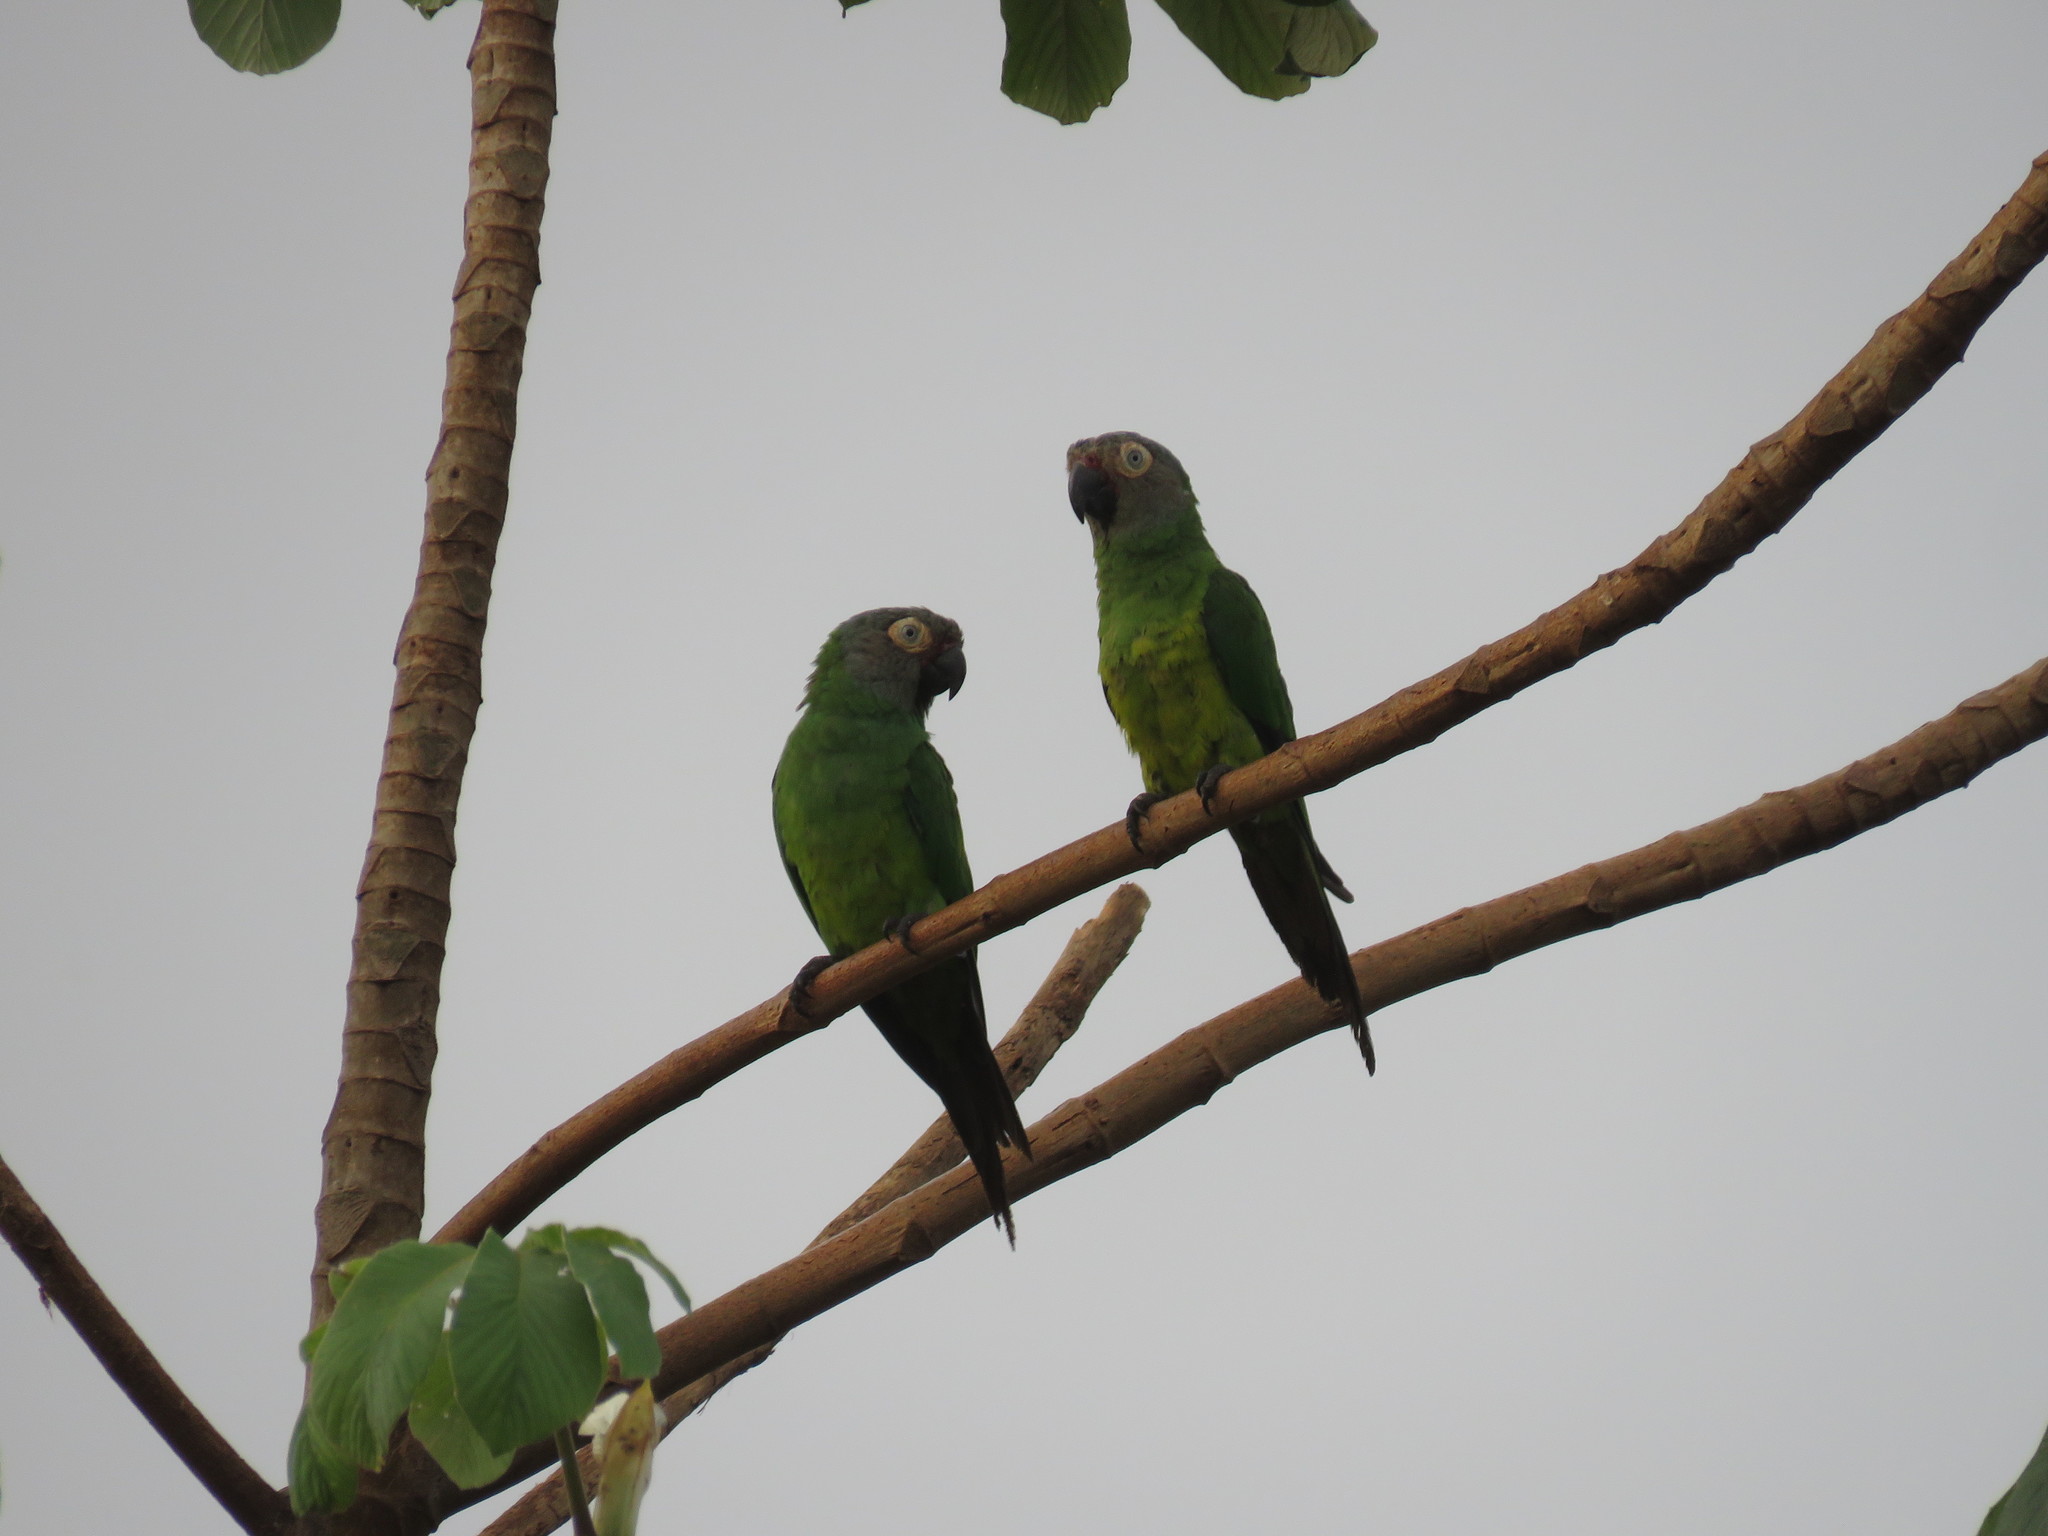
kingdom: Animalia
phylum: Chordata
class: Aves
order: Psittaciformes
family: Psittacidae
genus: Aratinga
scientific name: Aratinga weddellii
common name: Dusky-headed parakeet
